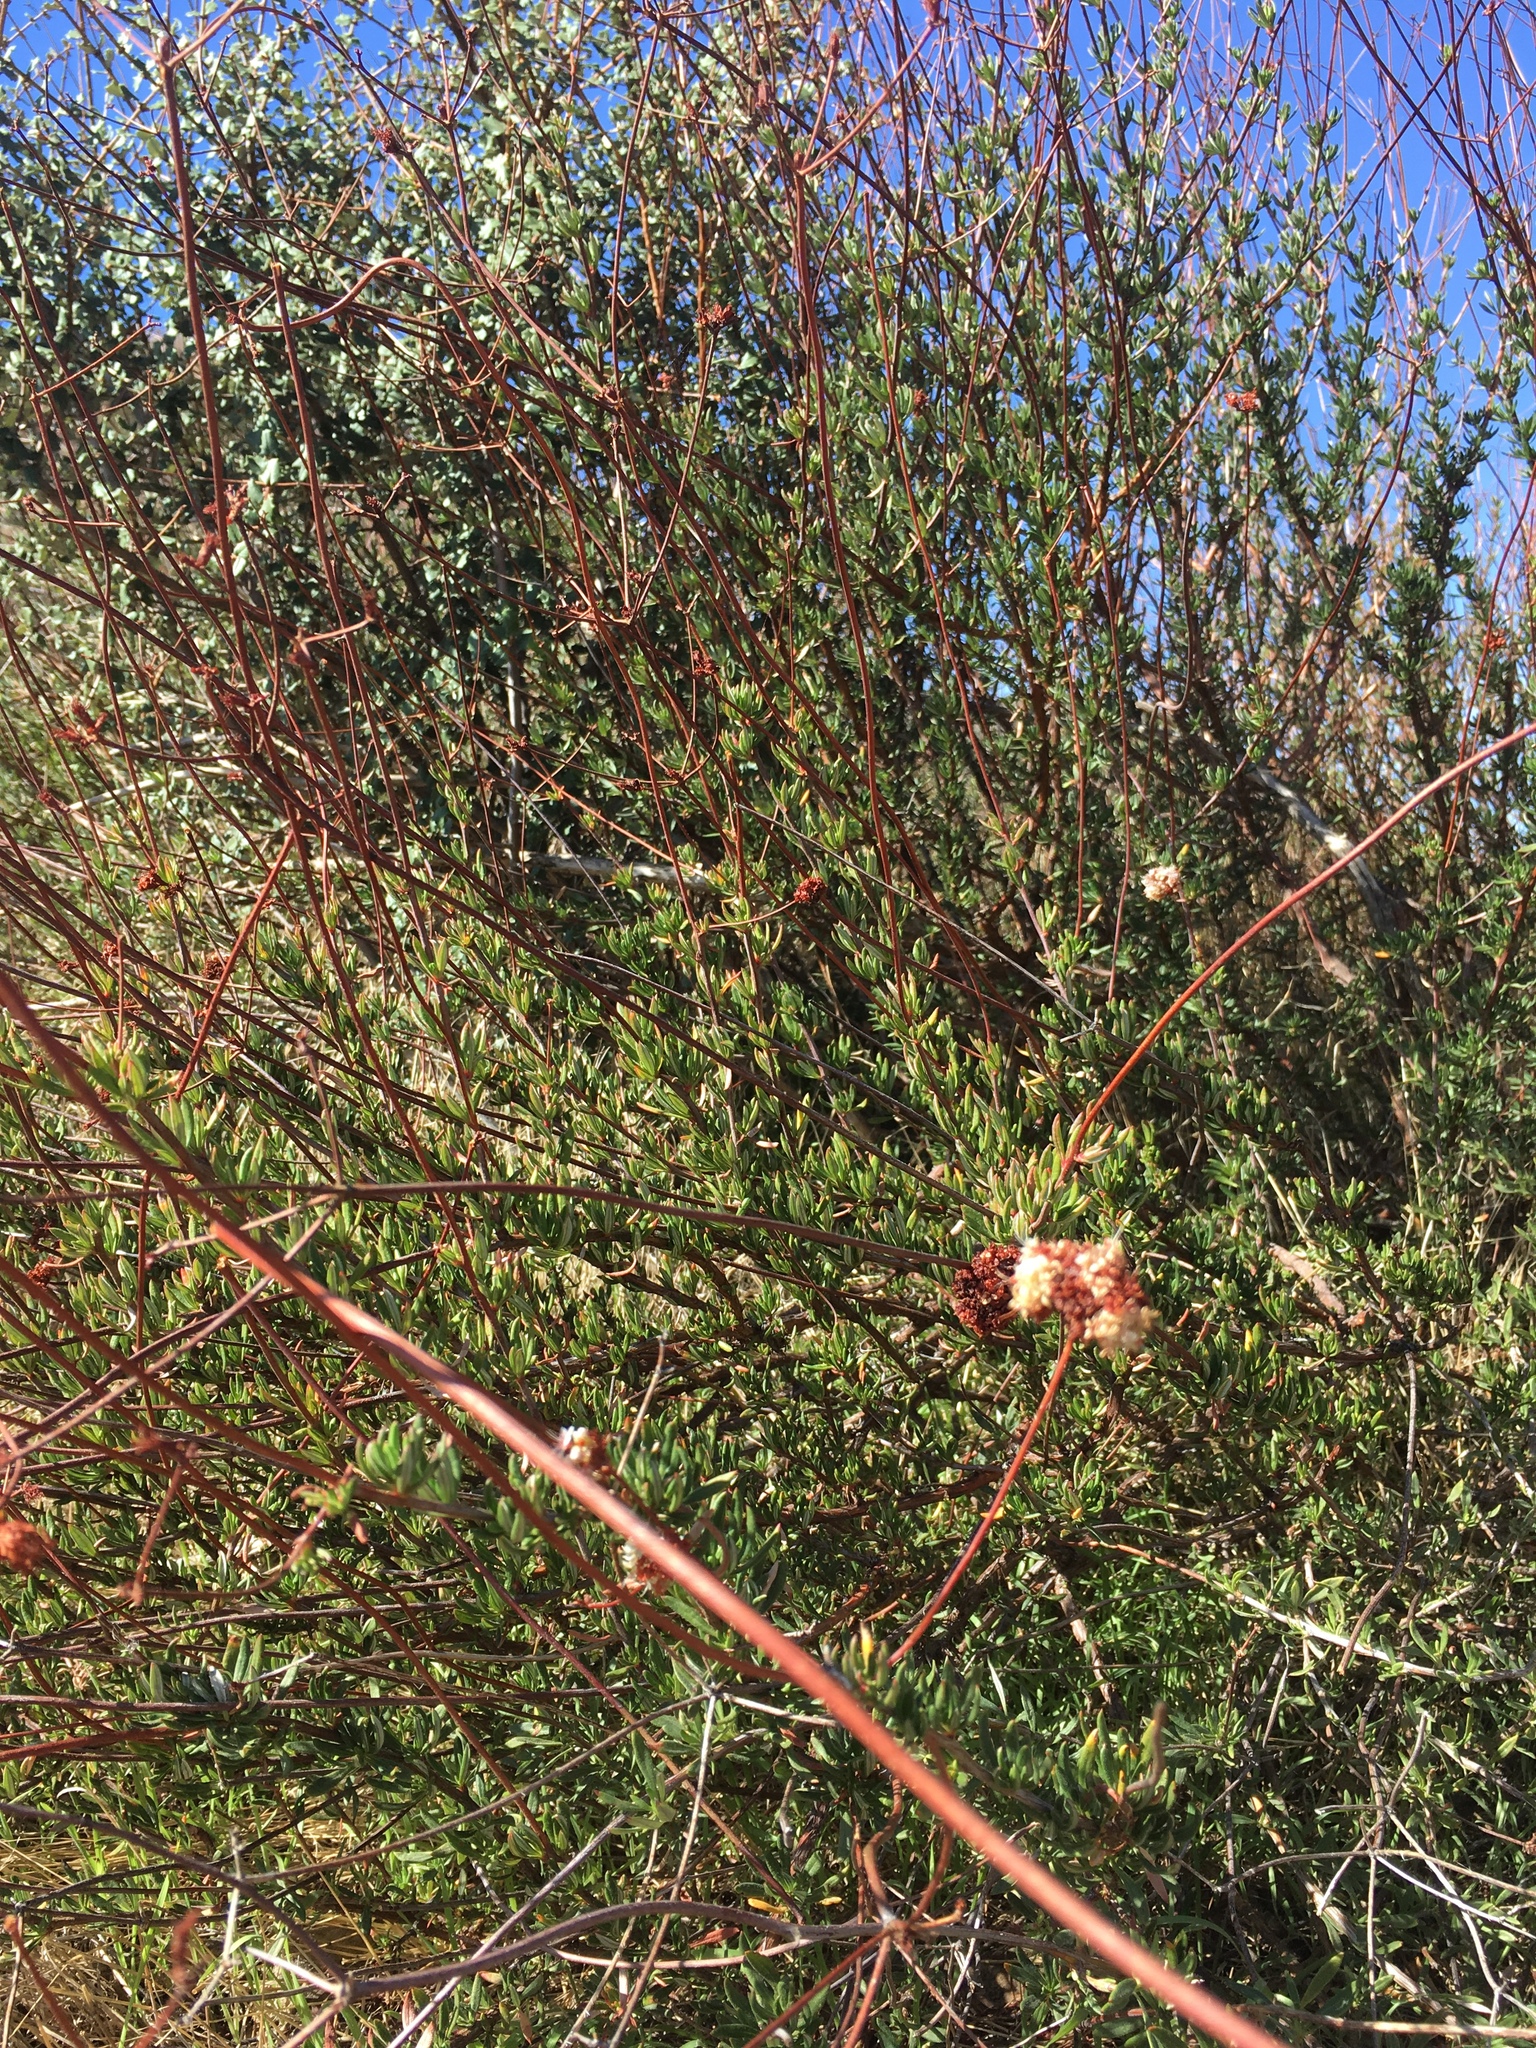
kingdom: Plantae
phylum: Tracheophyta
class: Magnoliopsida
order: Caryophyllales
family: Polygonaceae
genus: Eriogonum
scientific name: Eriogonum fasciculatum
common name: California wild buckwheat
